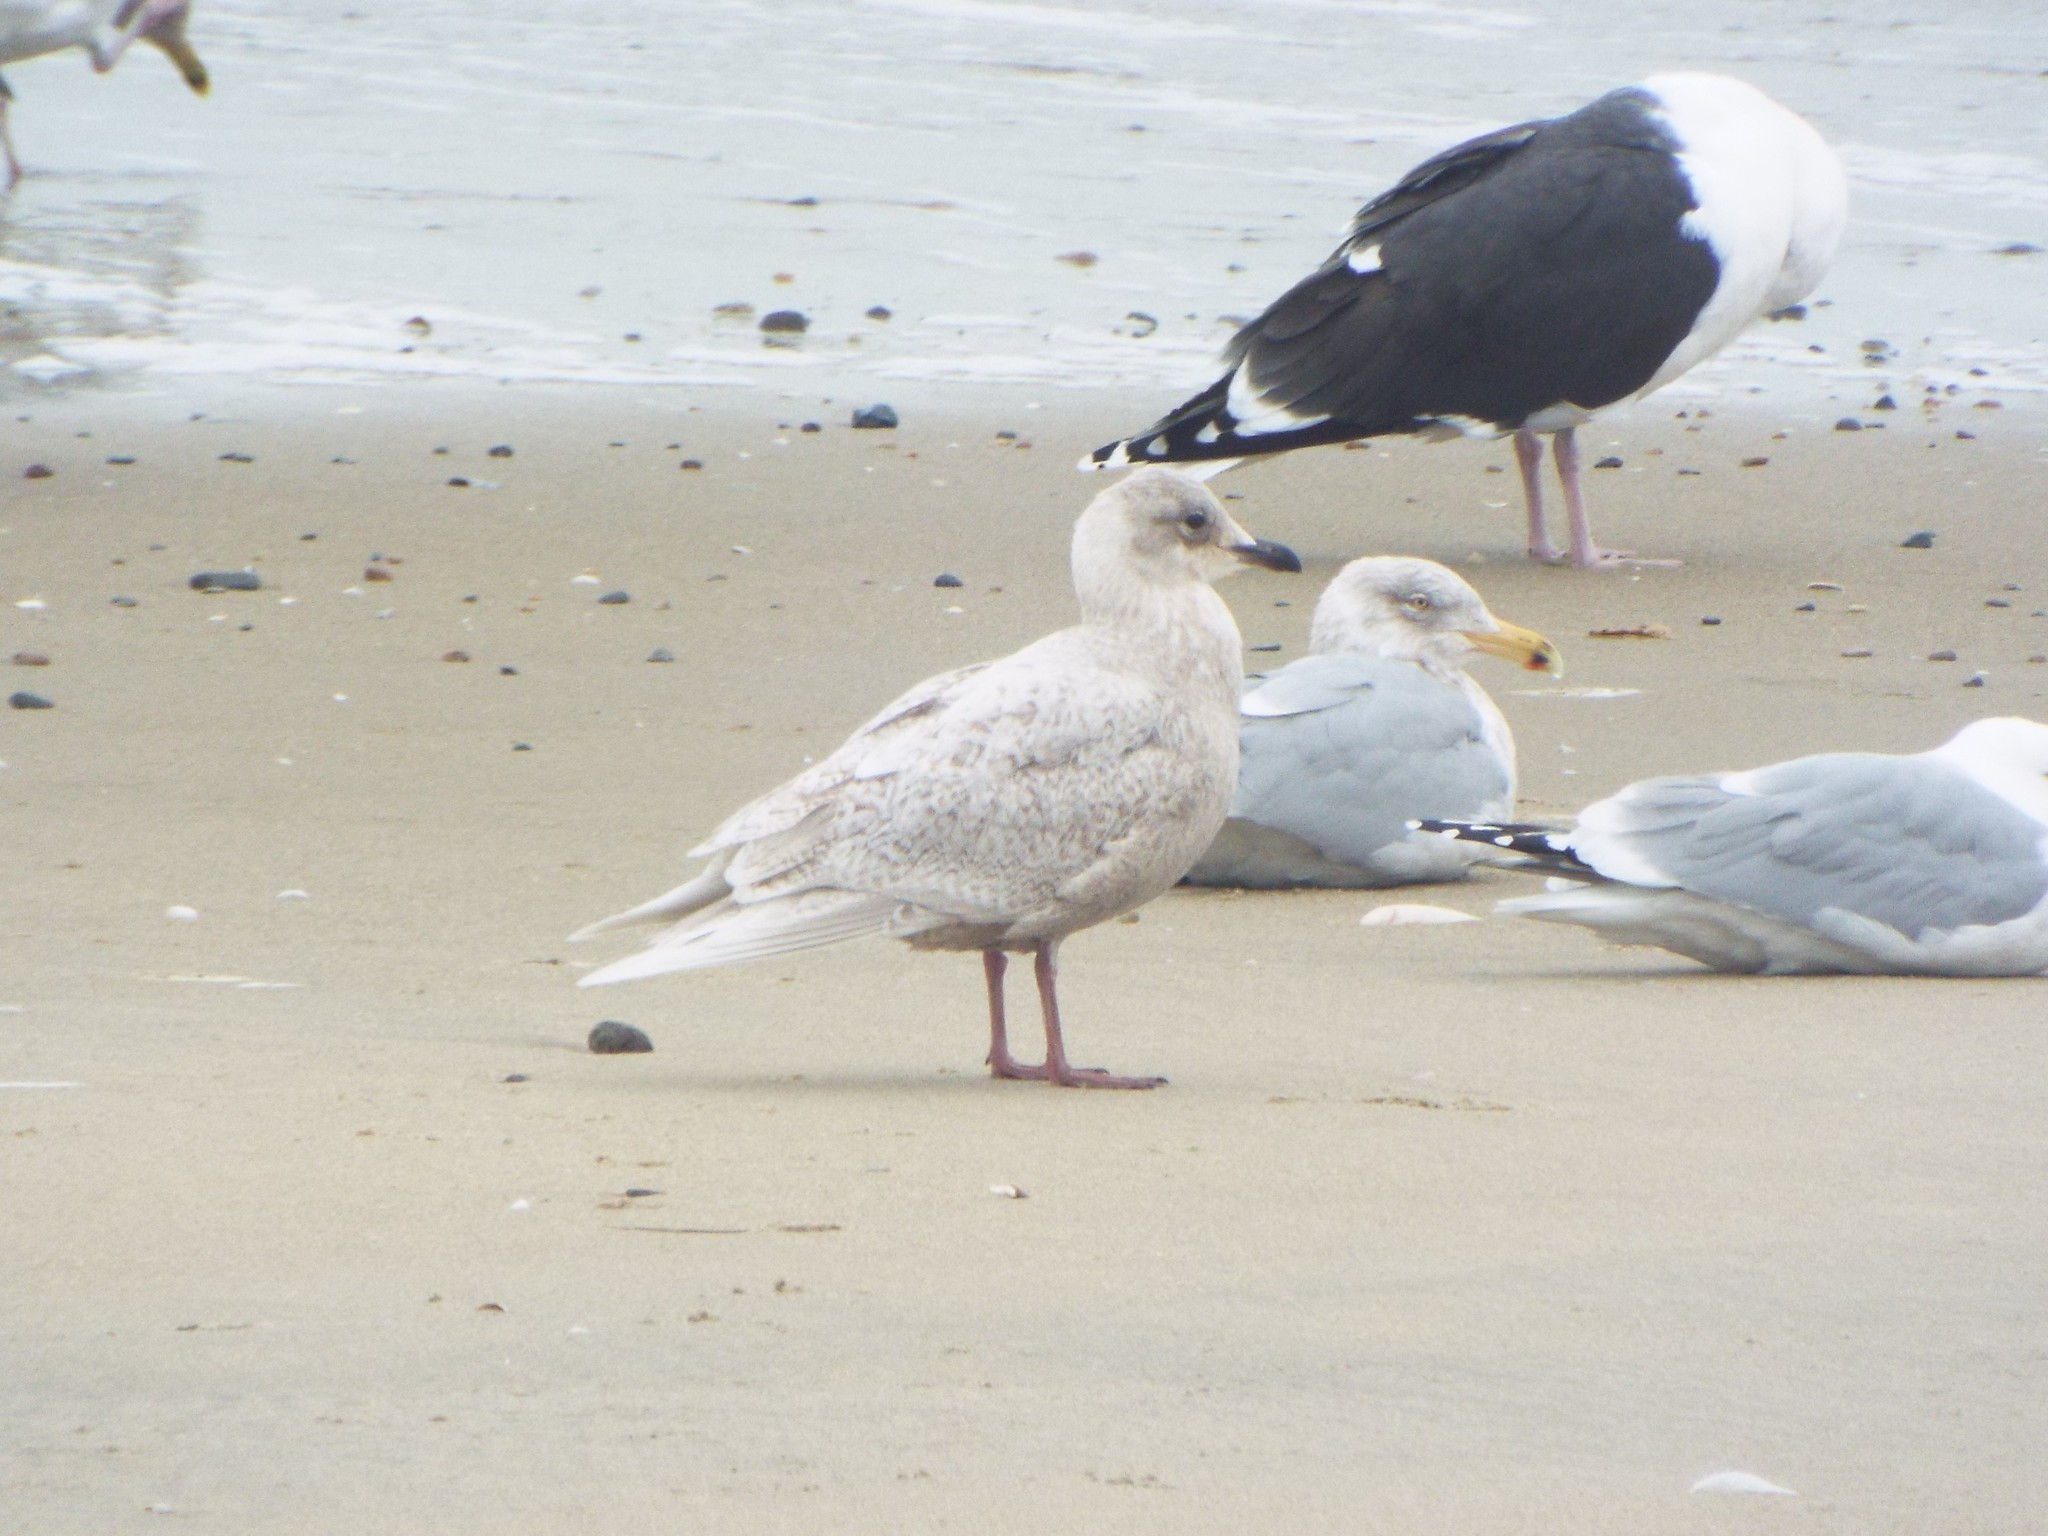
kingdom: Animalia
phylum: Chordata
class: Aves
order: Charadriiformes
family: Laridae
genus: Larus
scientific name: Larus glaucoides
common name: Iceland gull
